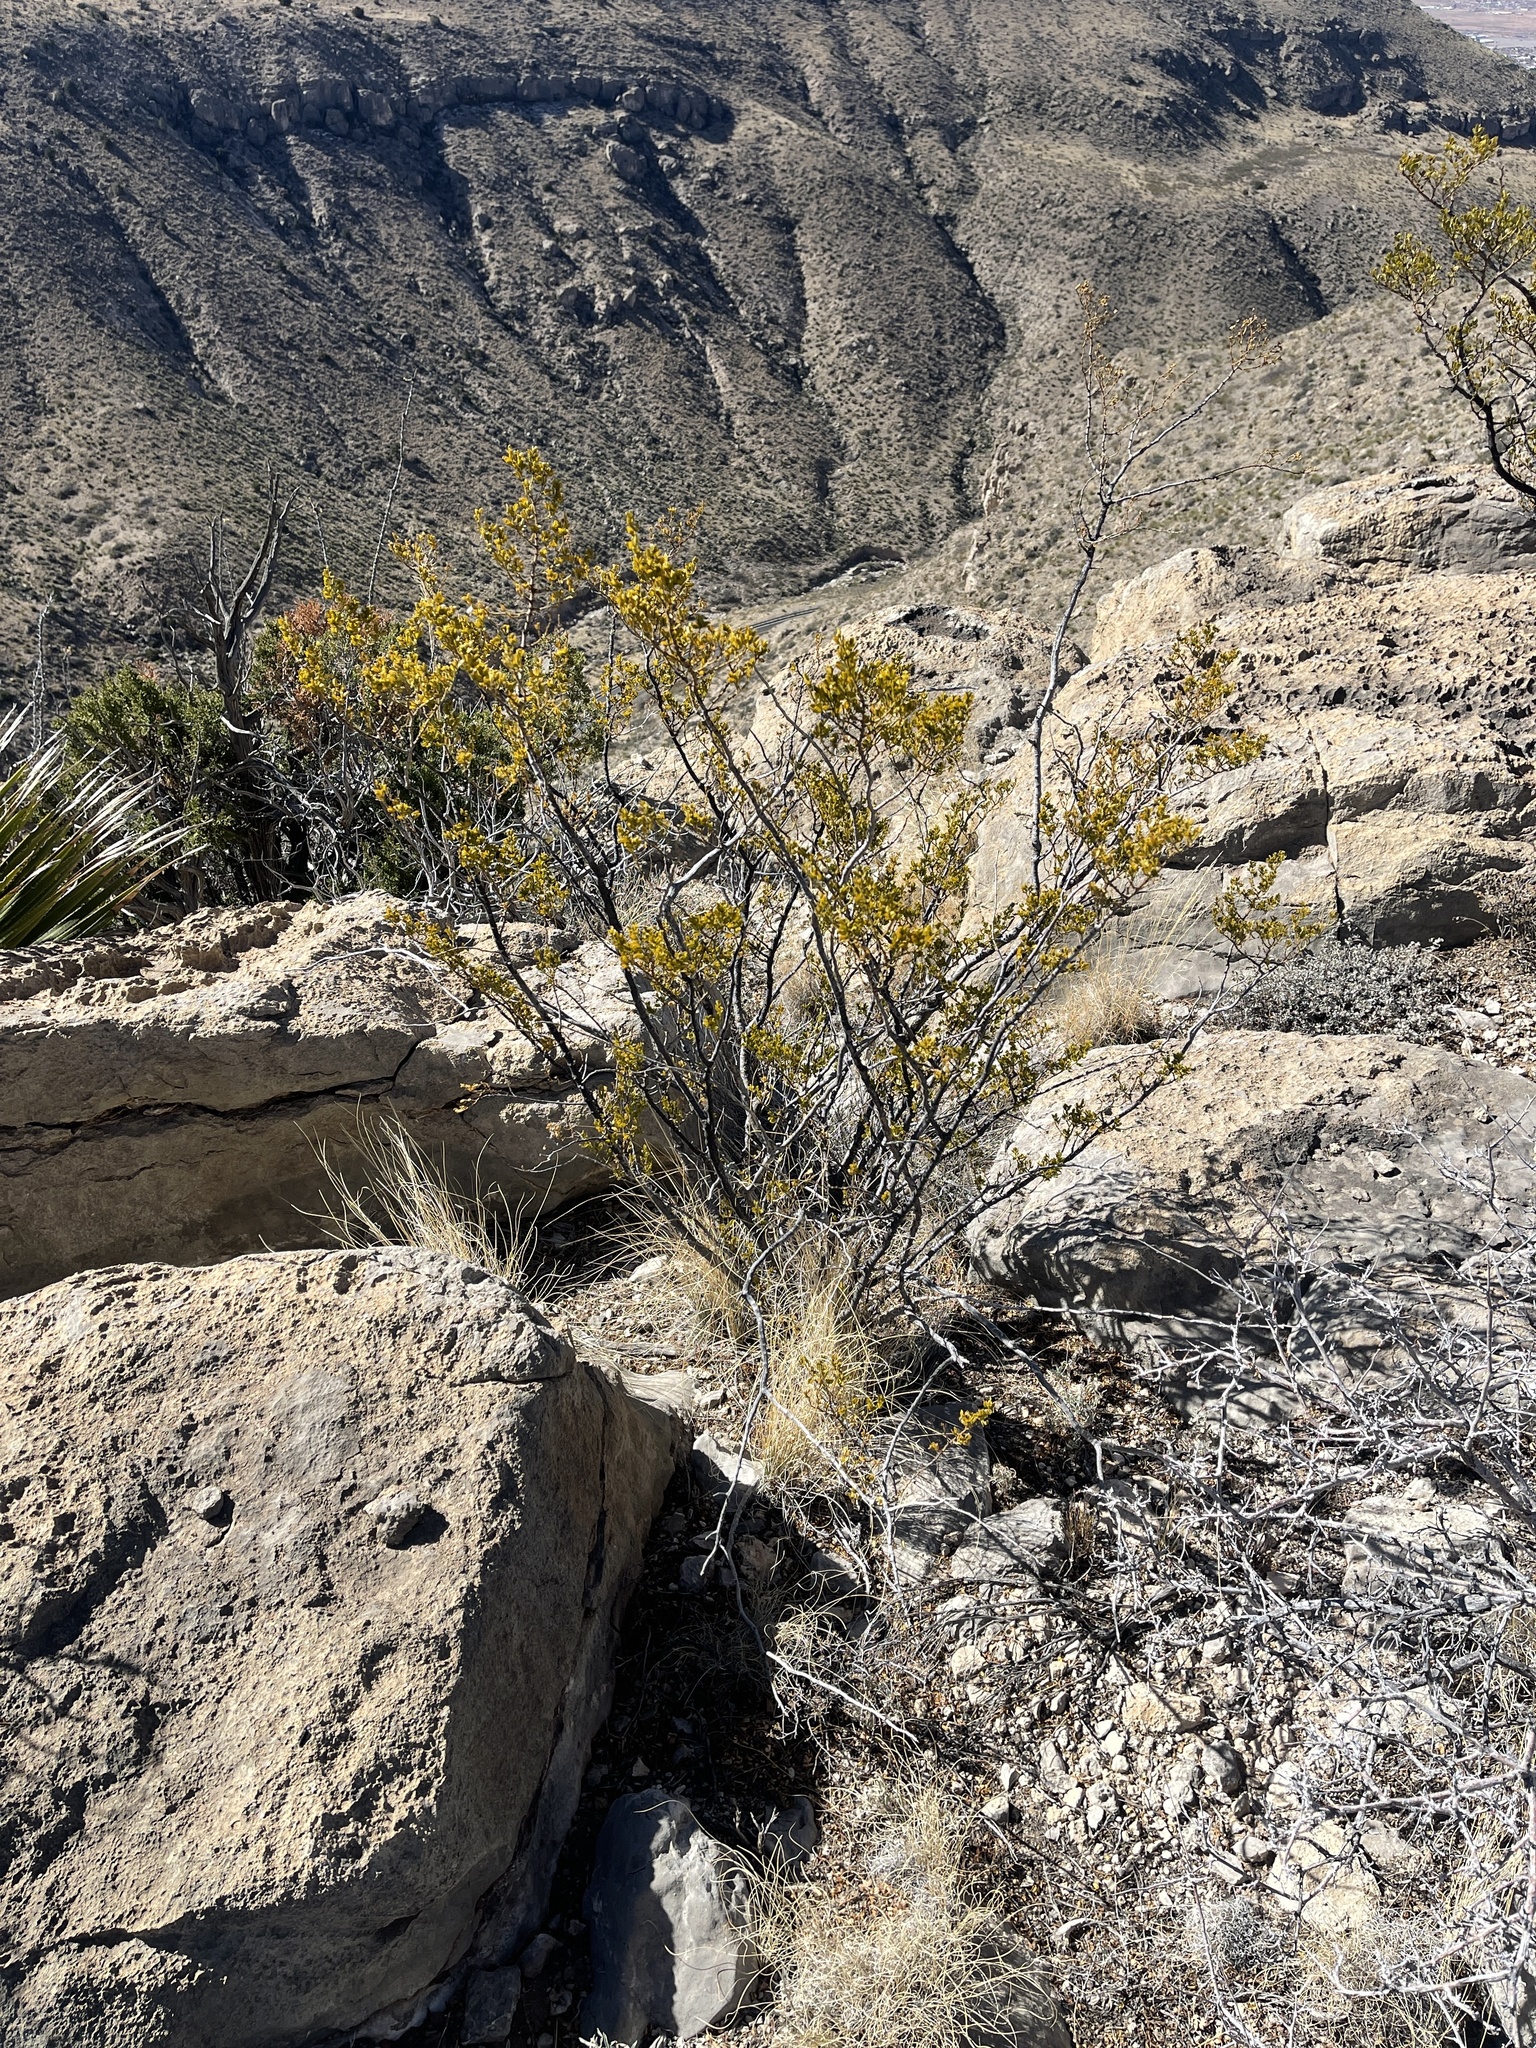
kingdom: Plantae
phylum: Tracheophyta
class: Magnoliopsida
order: Zygophyllales
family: Zygophyllaceae
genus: Larrea
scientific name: Larrea tridentata
